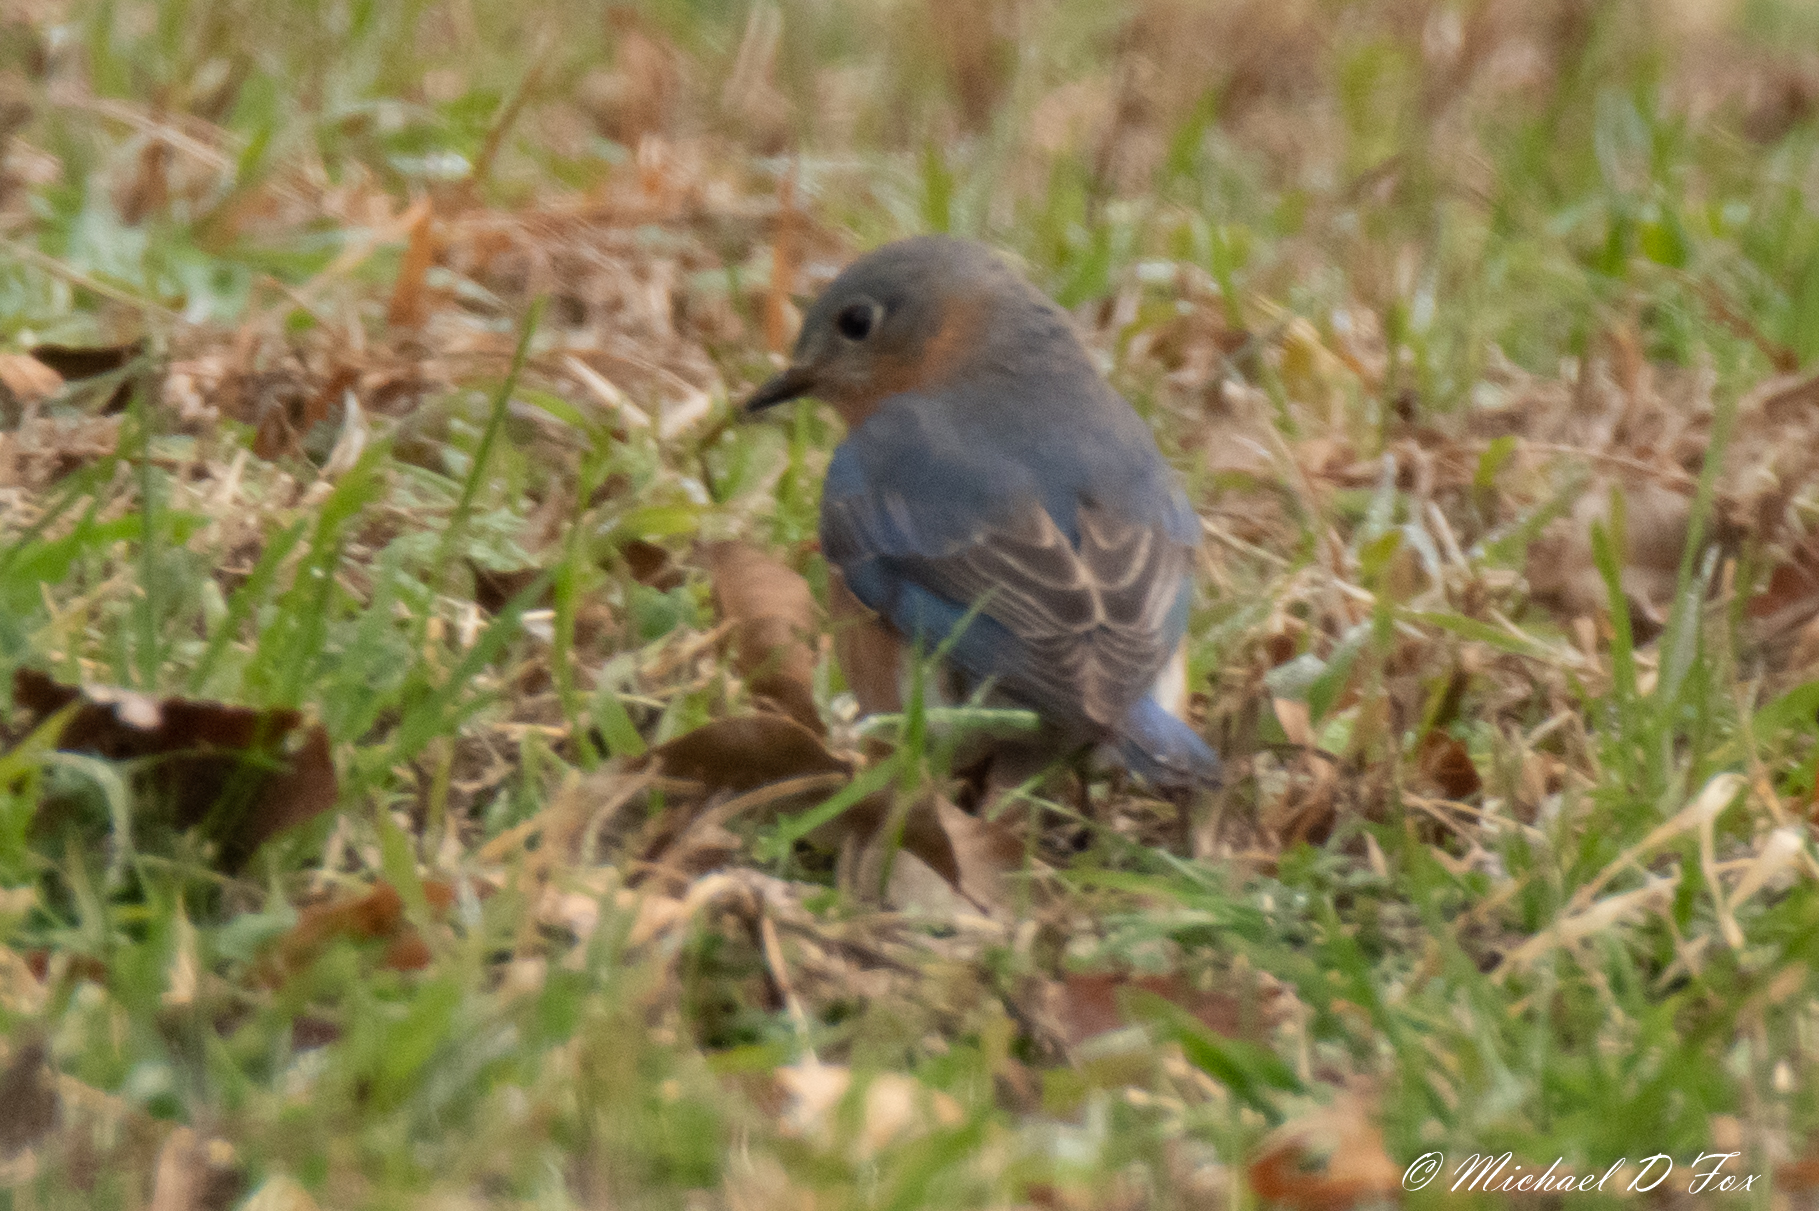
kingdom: Animalia
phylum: Chordata
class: Aves
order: Passeriformes
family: Turdidae
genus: Sialia
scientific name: Sialia sialis
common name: Eastern bluebird
